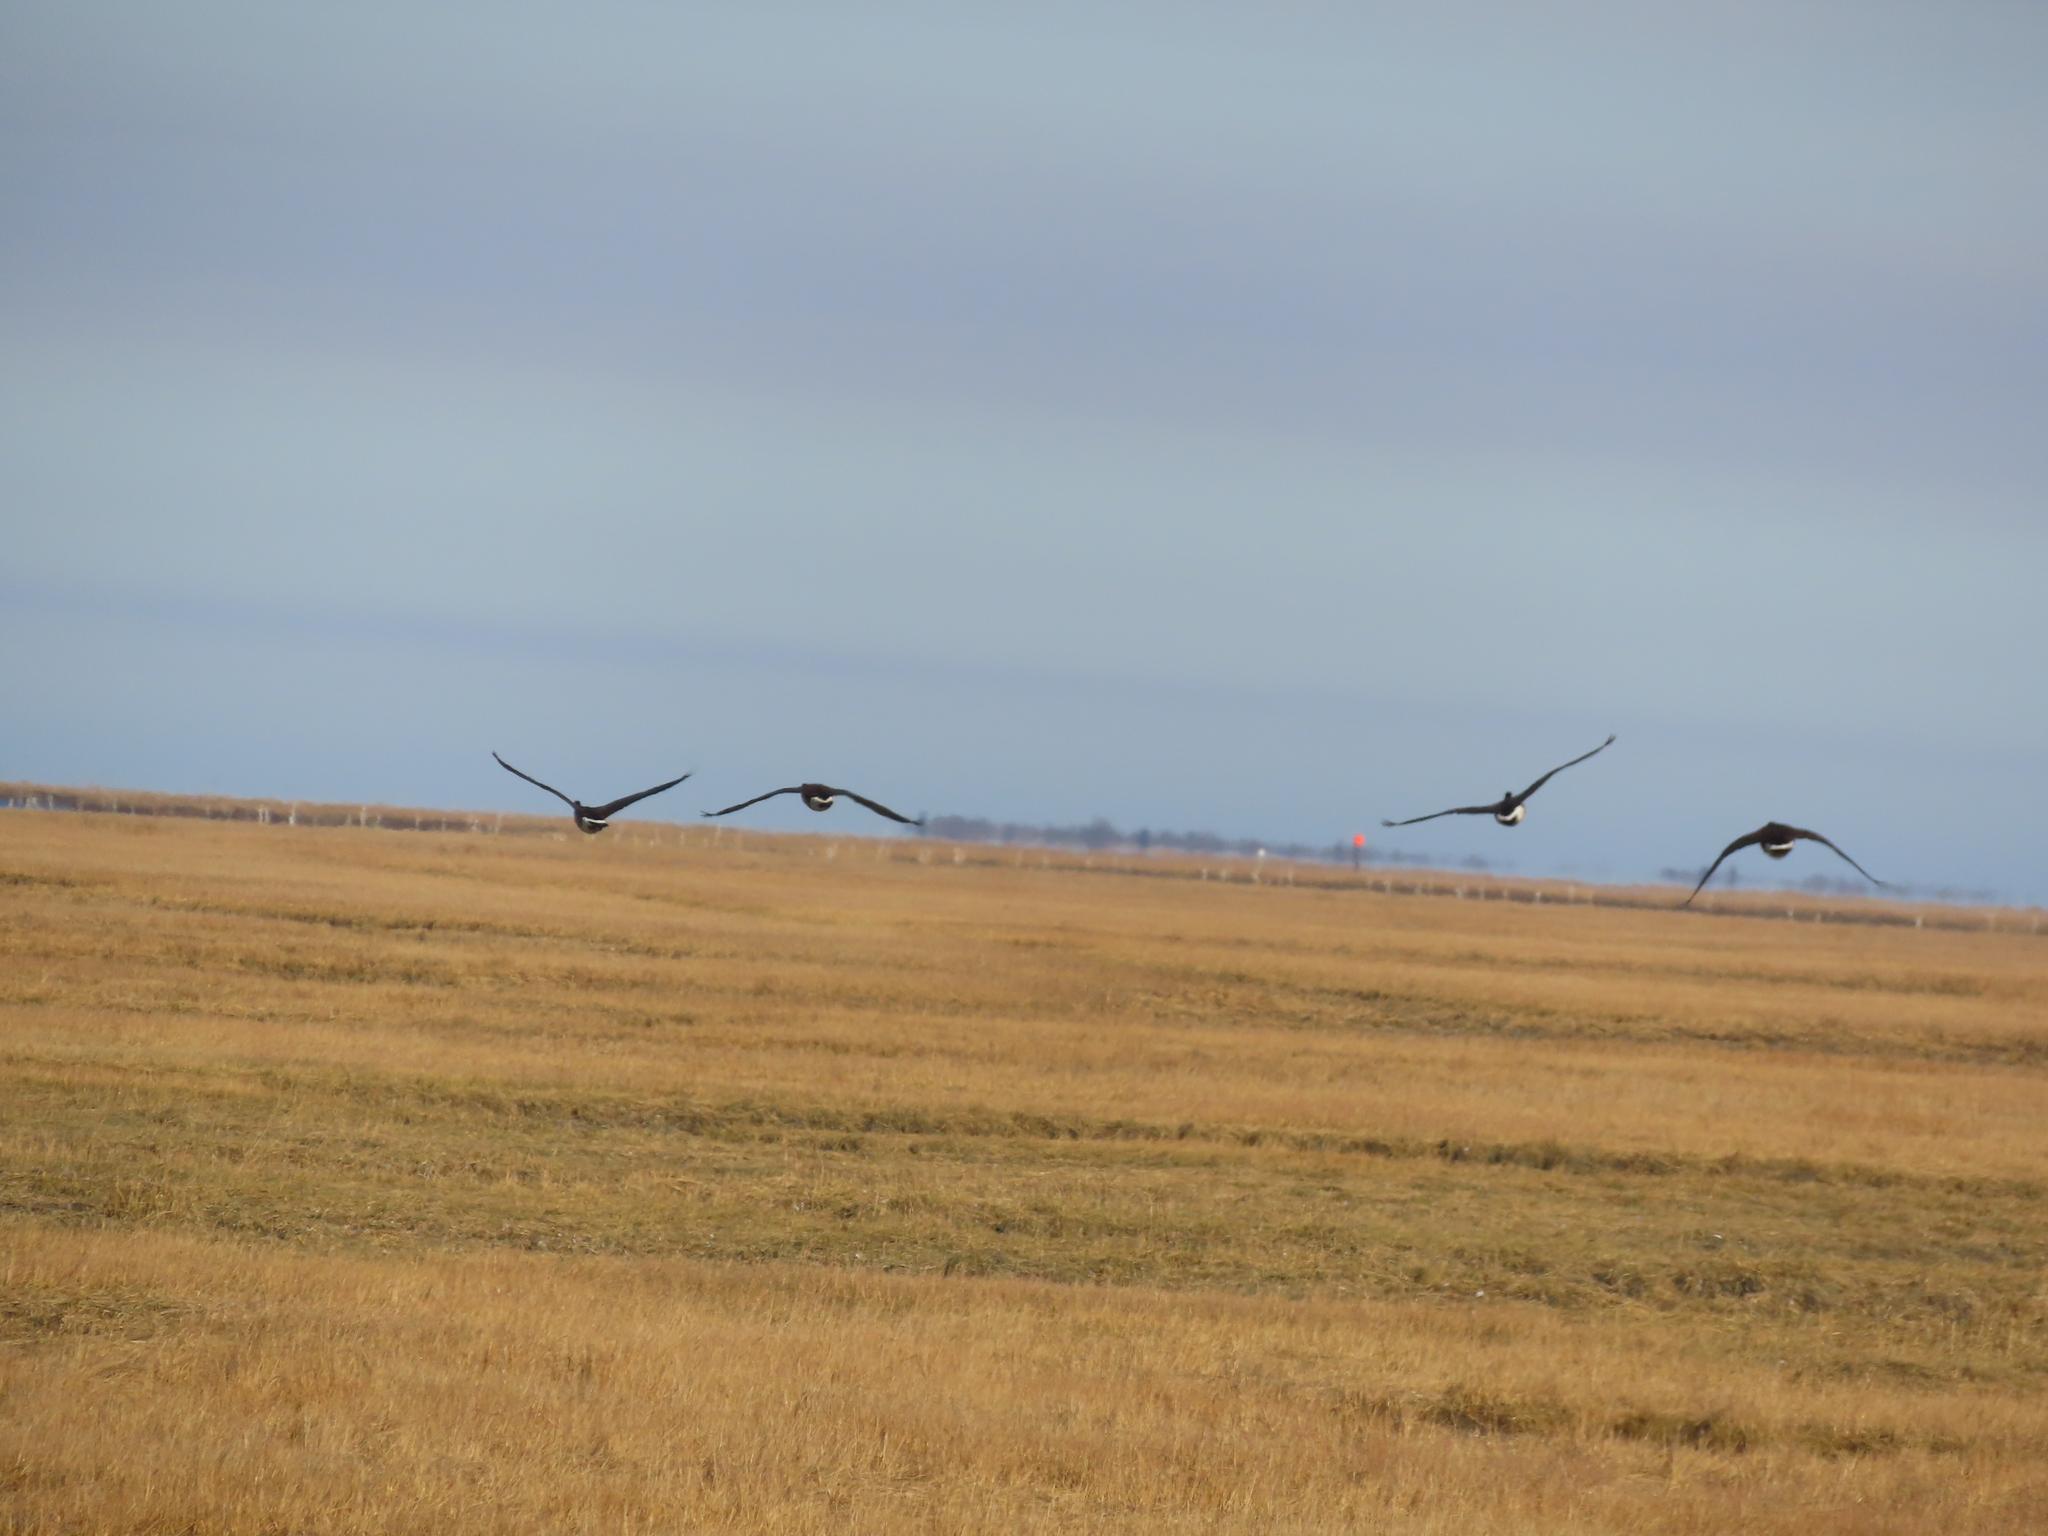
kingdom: Animalia
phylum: Chordata
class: Aves
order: Anseriformes
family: Anatidae
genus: Branta
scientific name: Branta canadensis
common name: Canada goose
